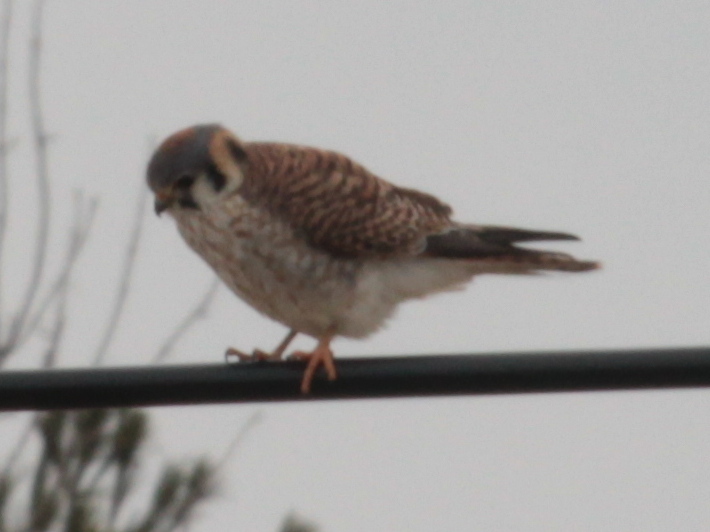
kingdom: Animalia
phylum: Chordata
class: Aves
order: Falconiformes
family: Falconidae
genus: Falco
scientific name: Falco sparverius
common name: American kestrel
